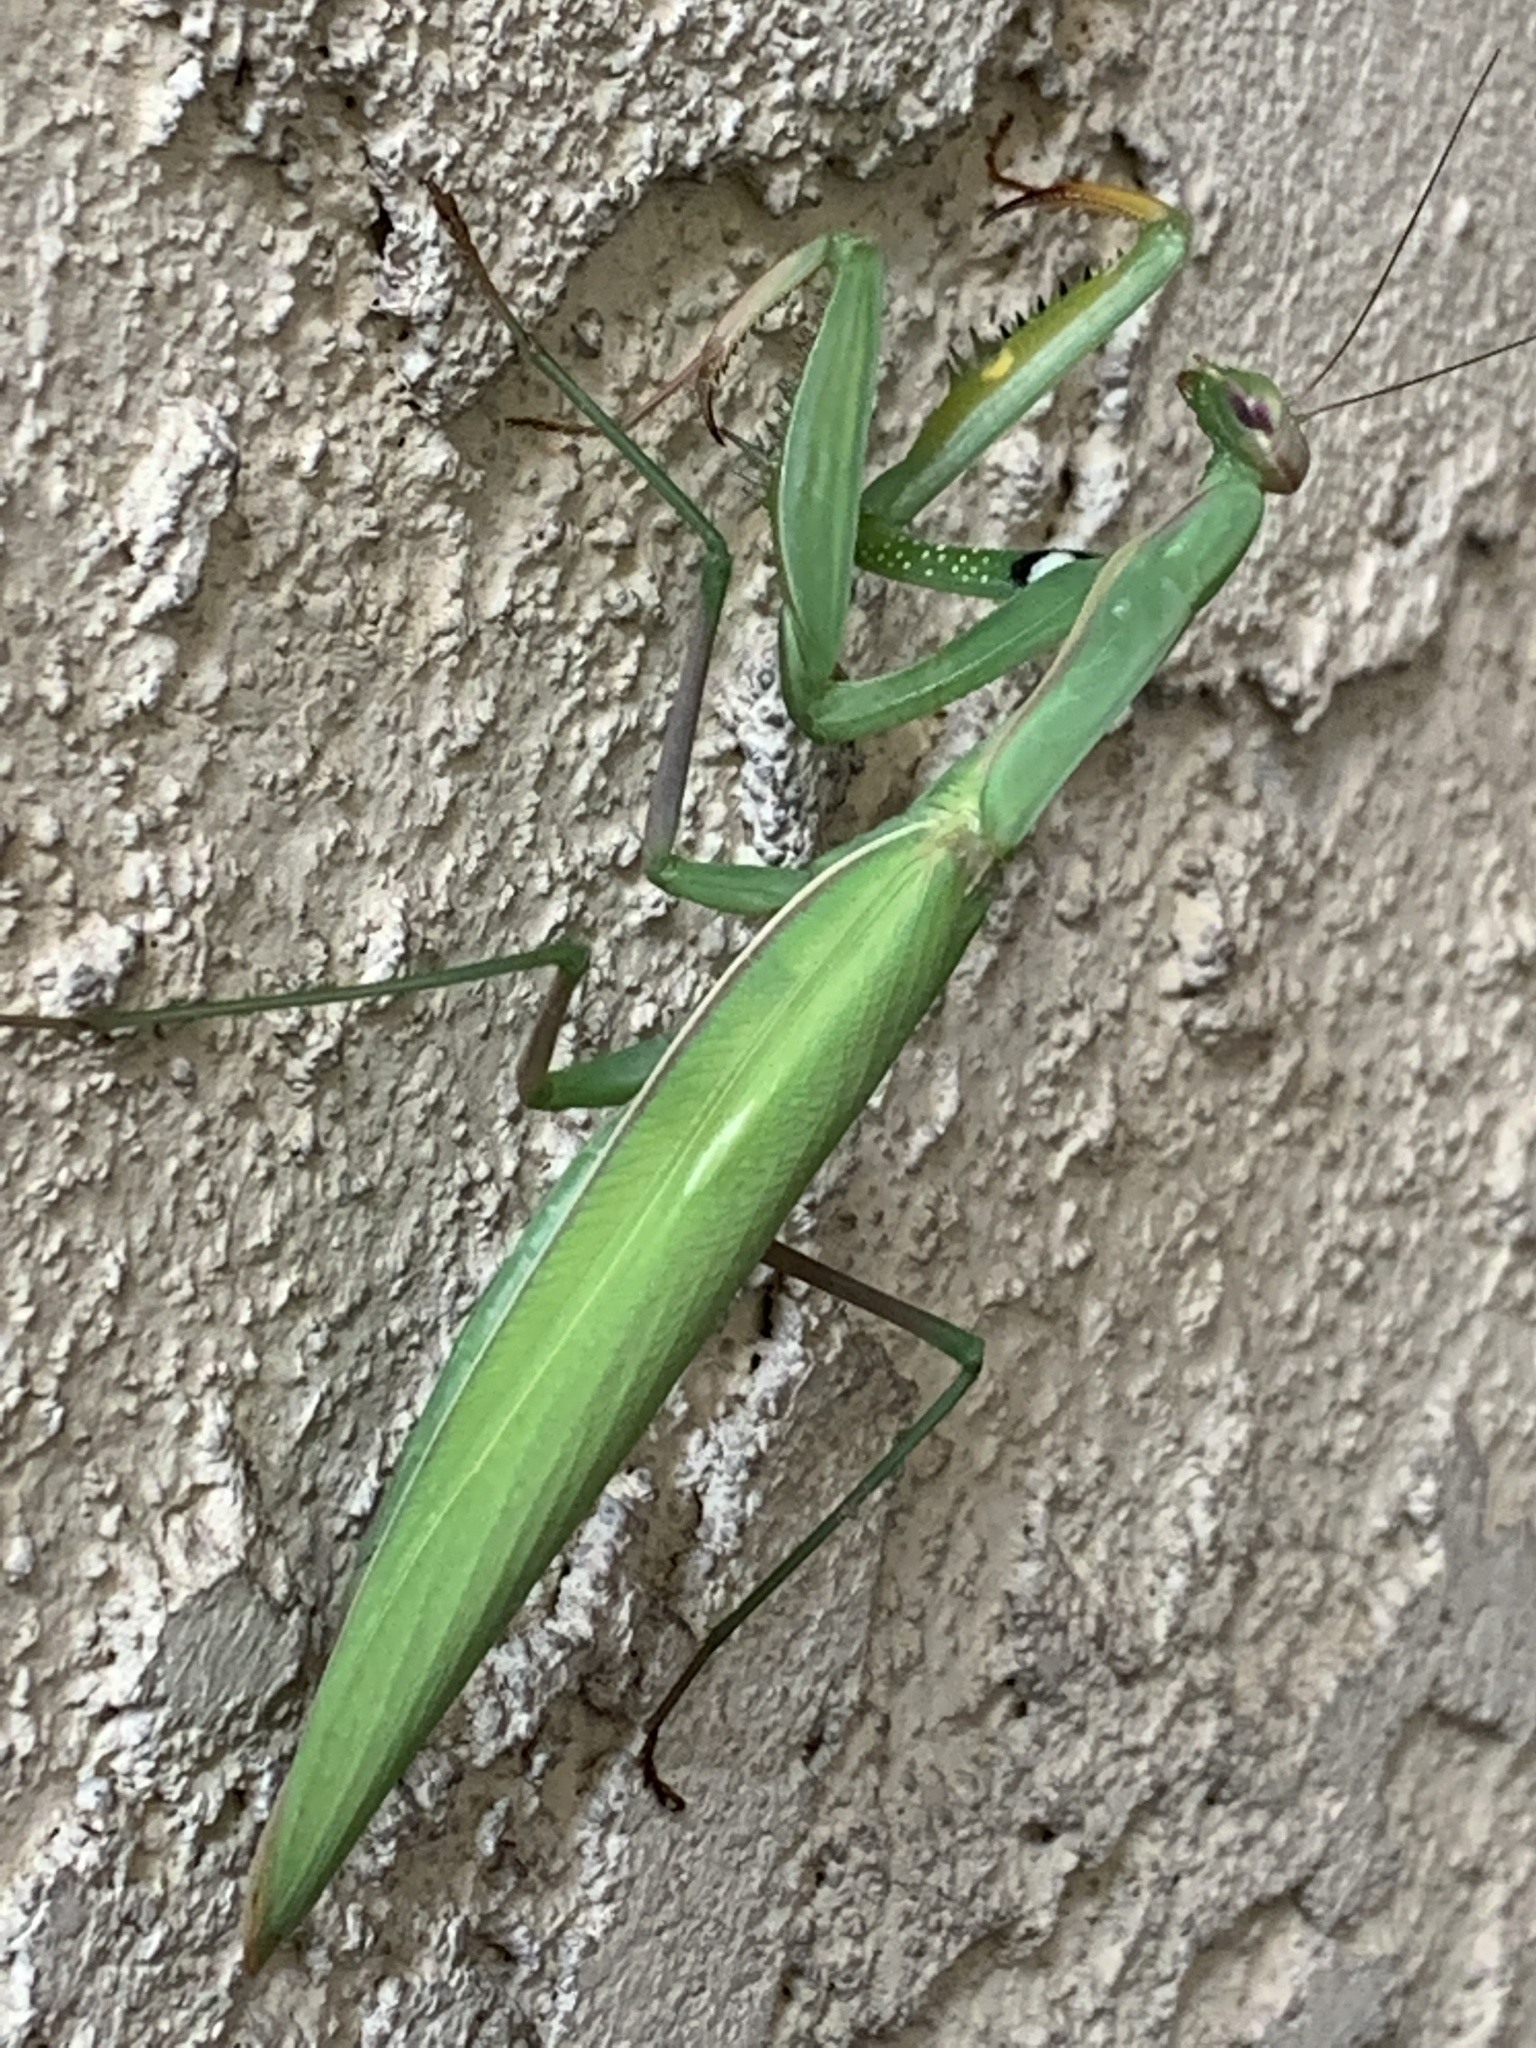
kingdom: Animalia
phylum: Arthropoda
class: Insecta
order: Mantodea
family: Mantidae
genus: Mantis
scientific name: Mantis religiosa
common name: Praying mantis
